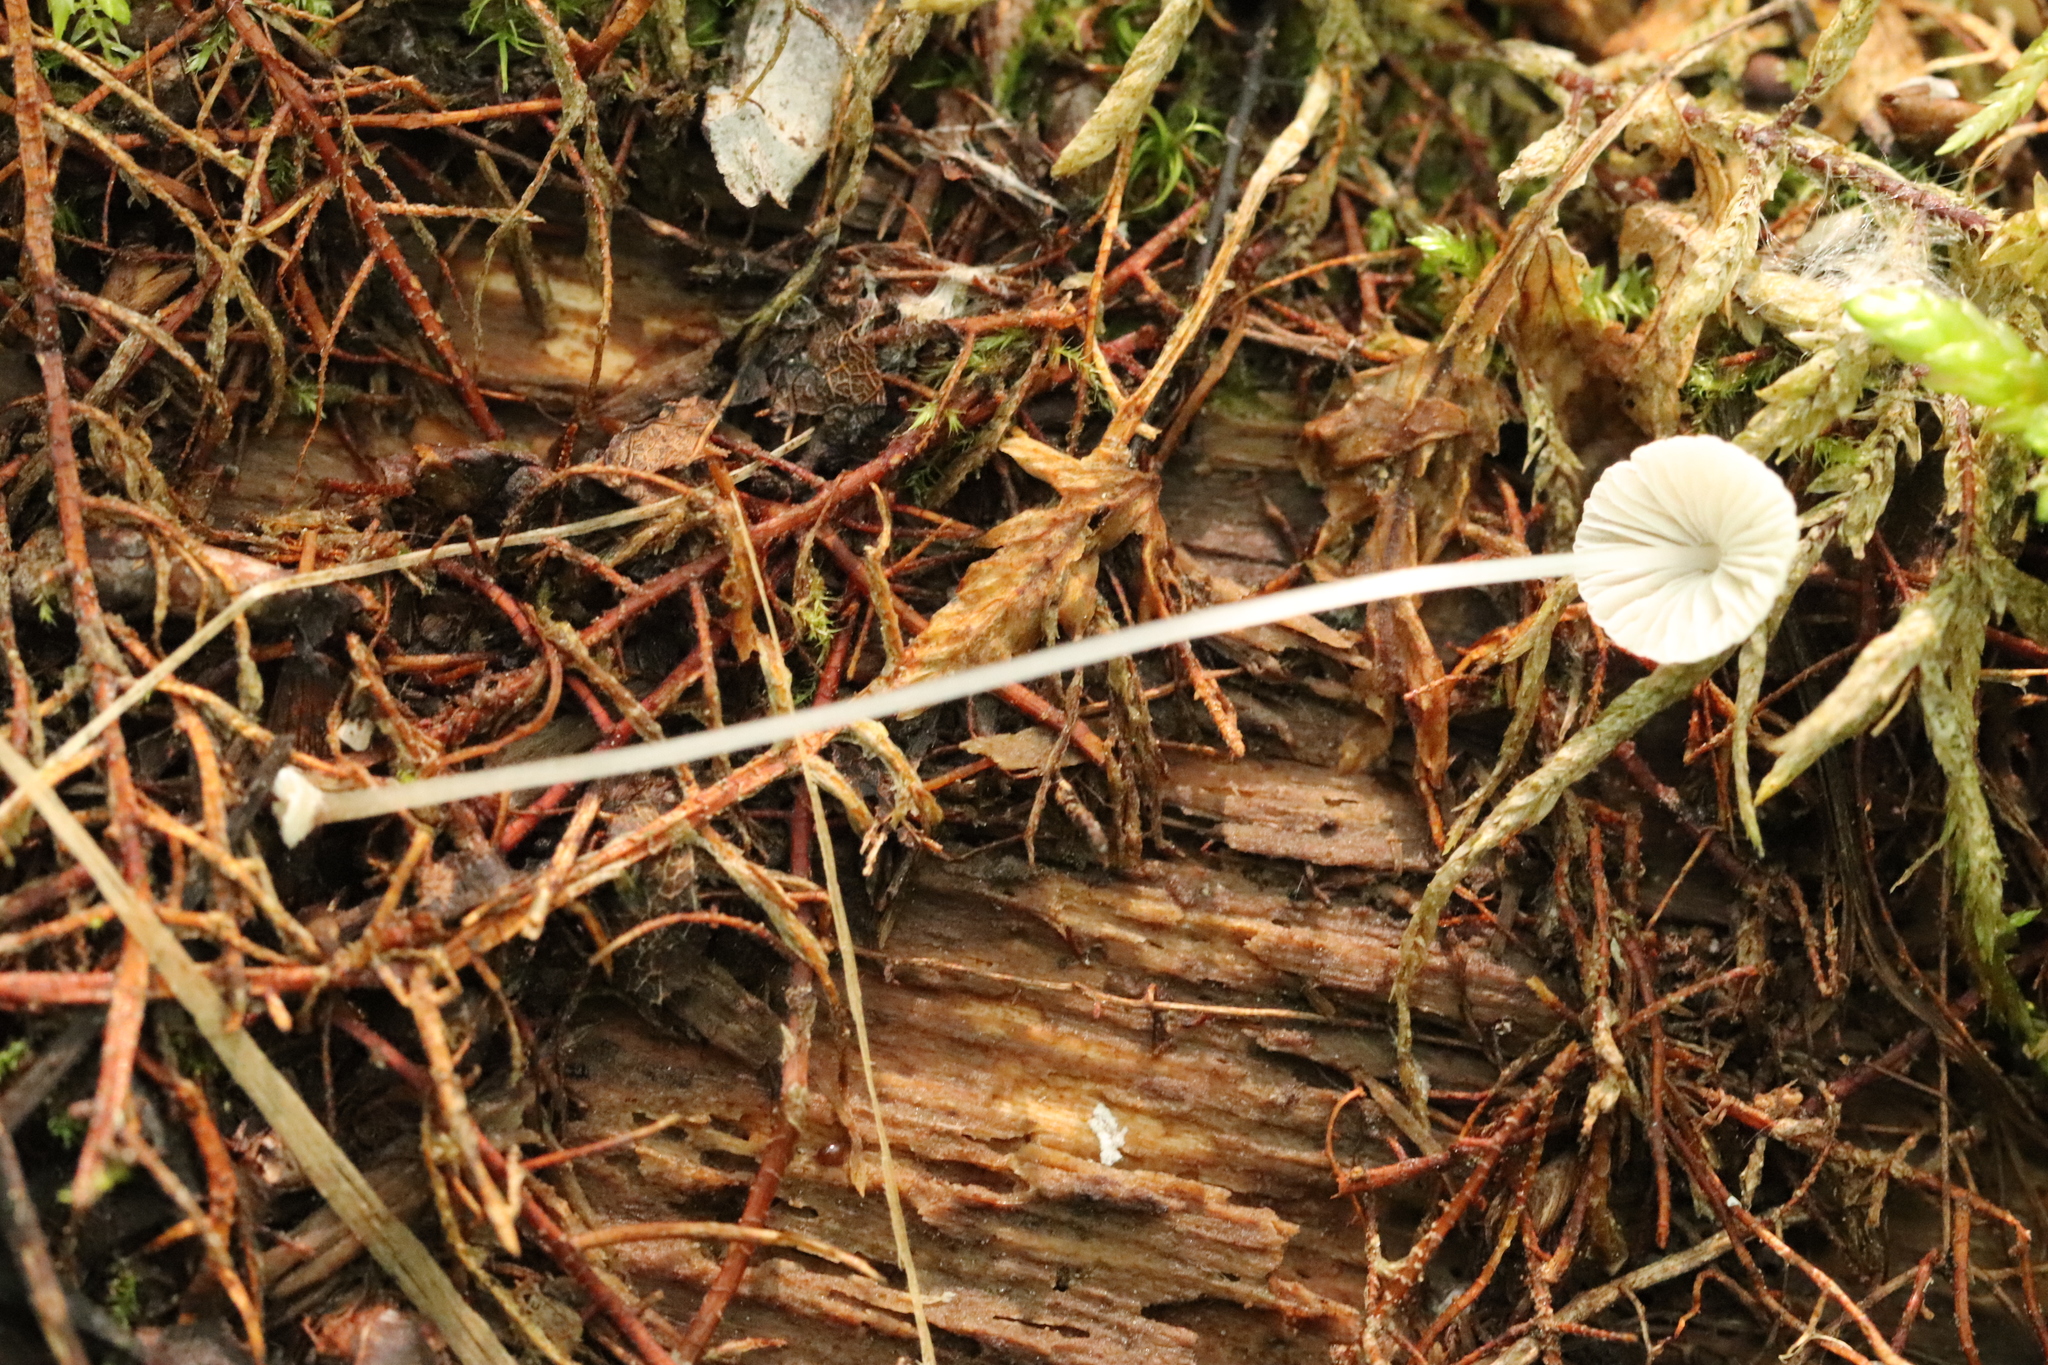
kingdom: Fungi
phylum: Basidiomycota
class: Agaricomycetes
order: Agaricales
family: Mycenaceae
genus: Mycena
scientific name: Mycena stylobates
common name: Bulbous bonnet
